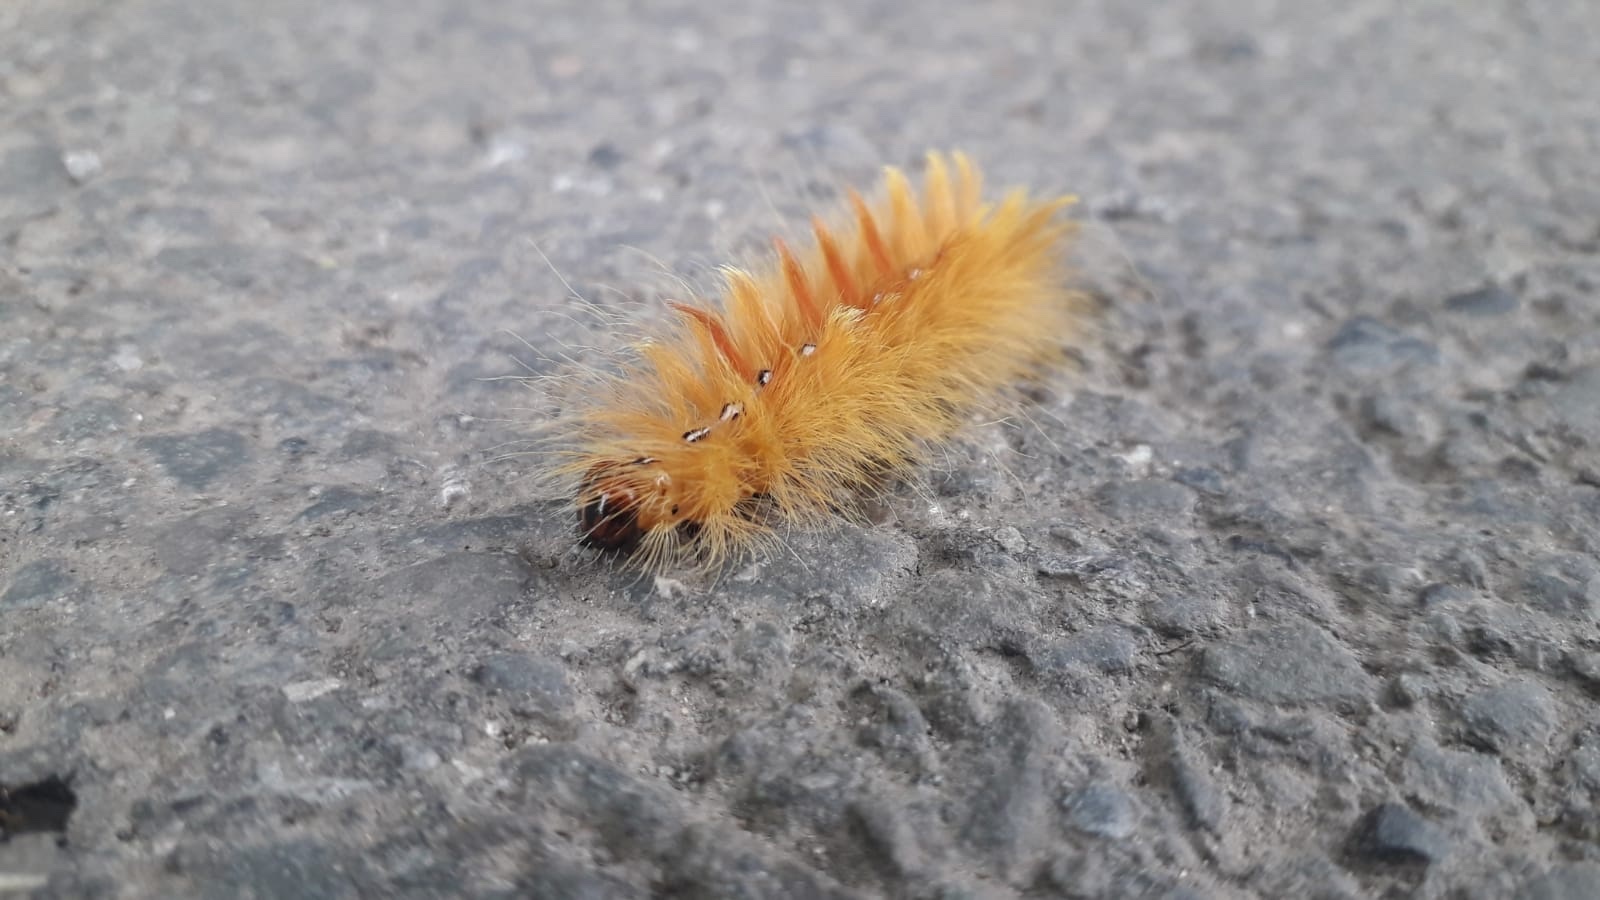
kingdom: Animalia
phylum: Arthropoda
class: Insecta
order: Lepidoptera
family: Noctuidae
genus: Acronicta
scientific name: Acronicta aceris
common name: Sycamore
